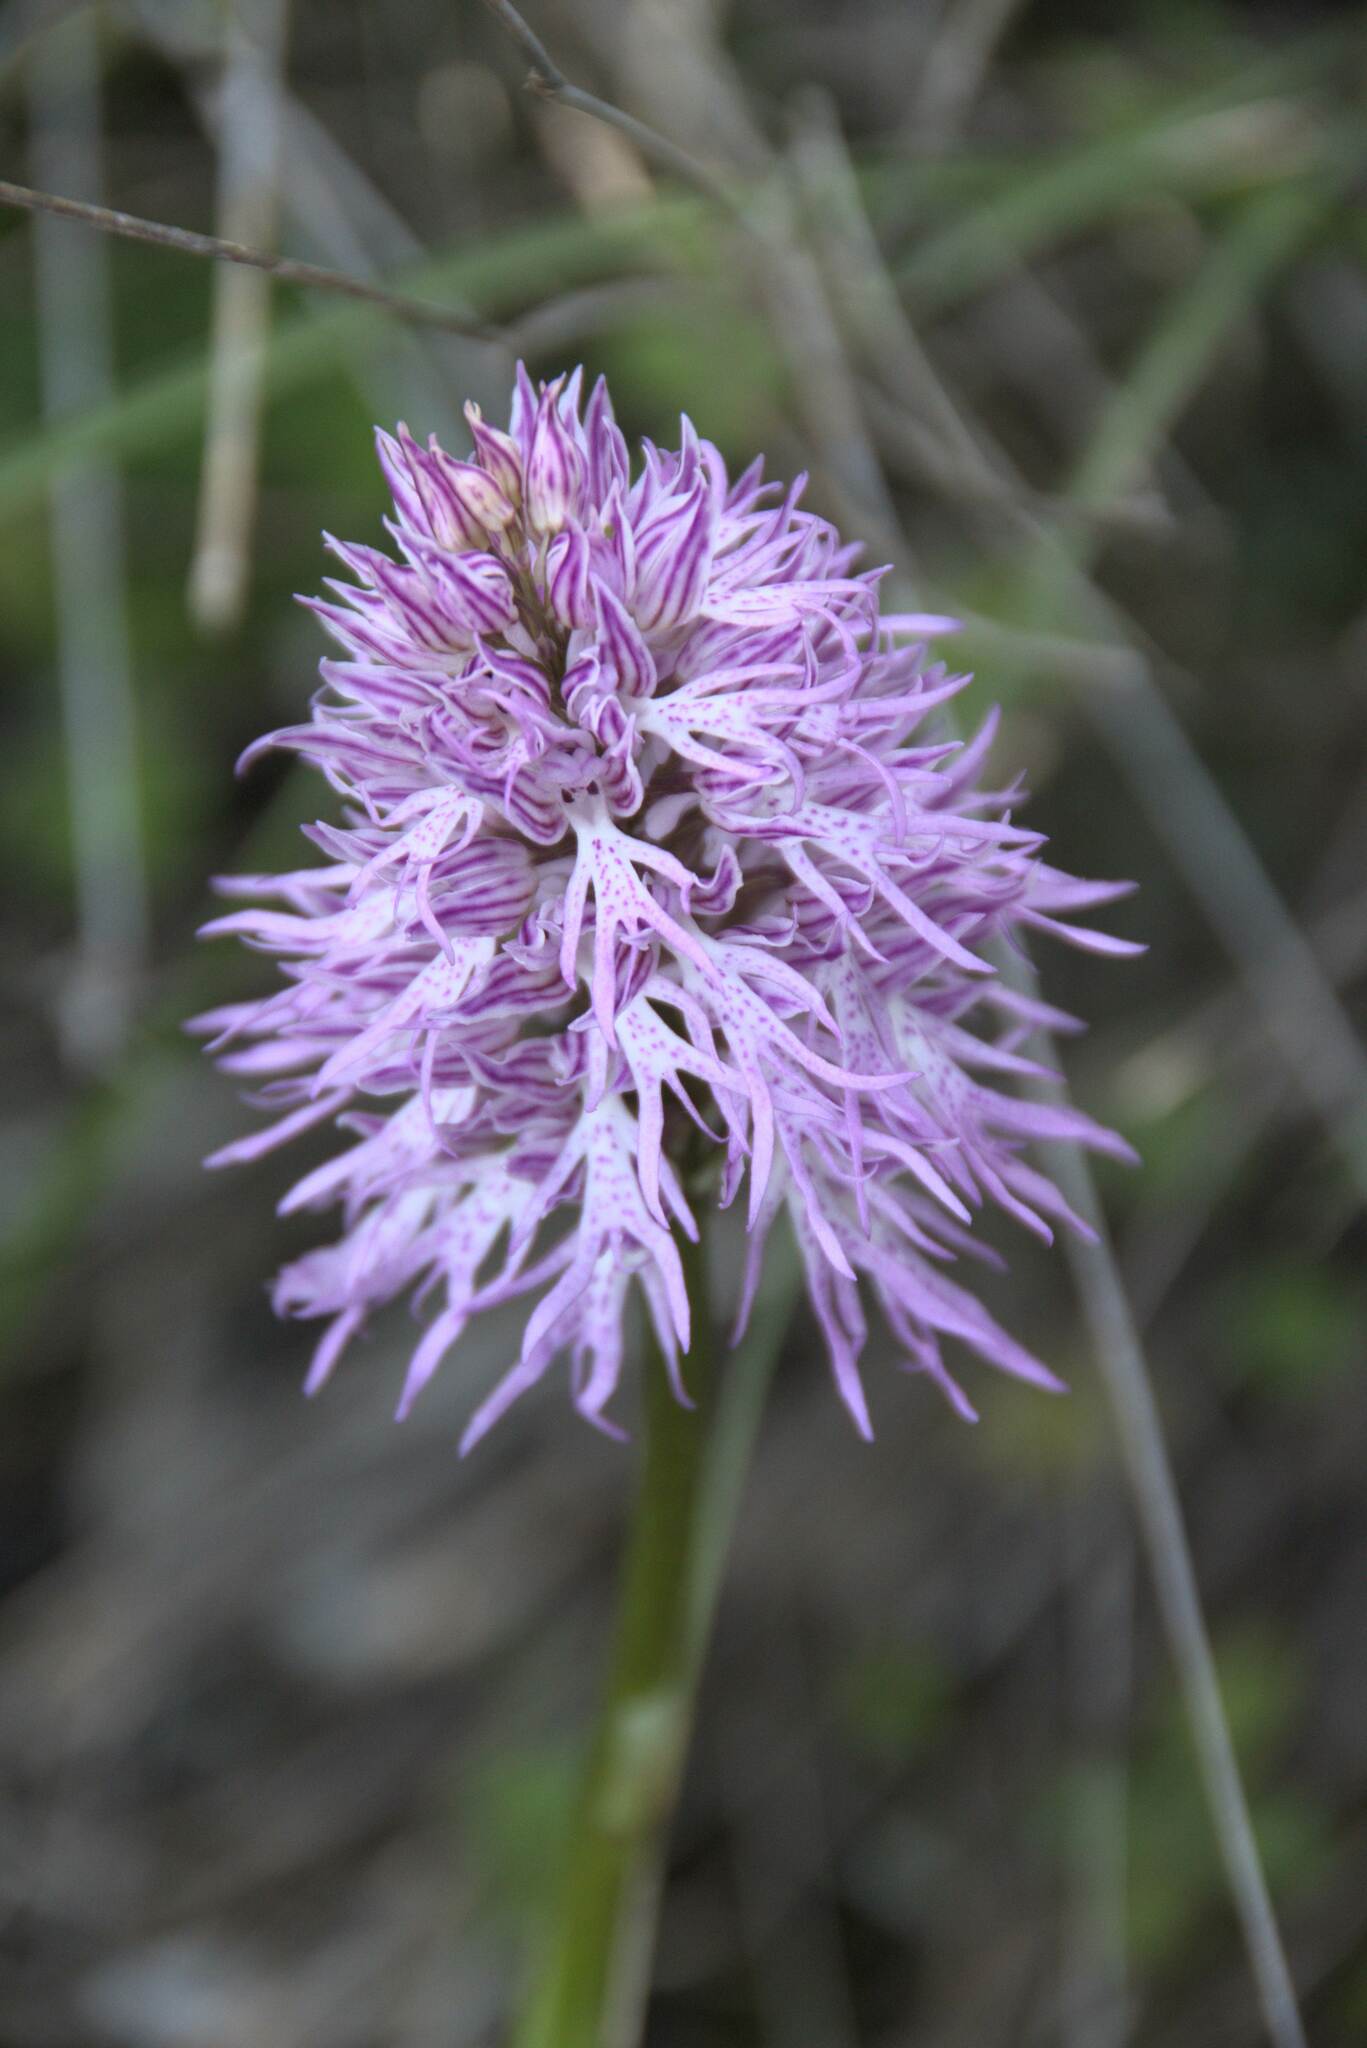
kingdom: Plantae
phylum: Tracheophyta
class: Liliopsida
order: Asparagales
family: Orchidaceae
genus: Orchis
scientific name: Orchis italica
